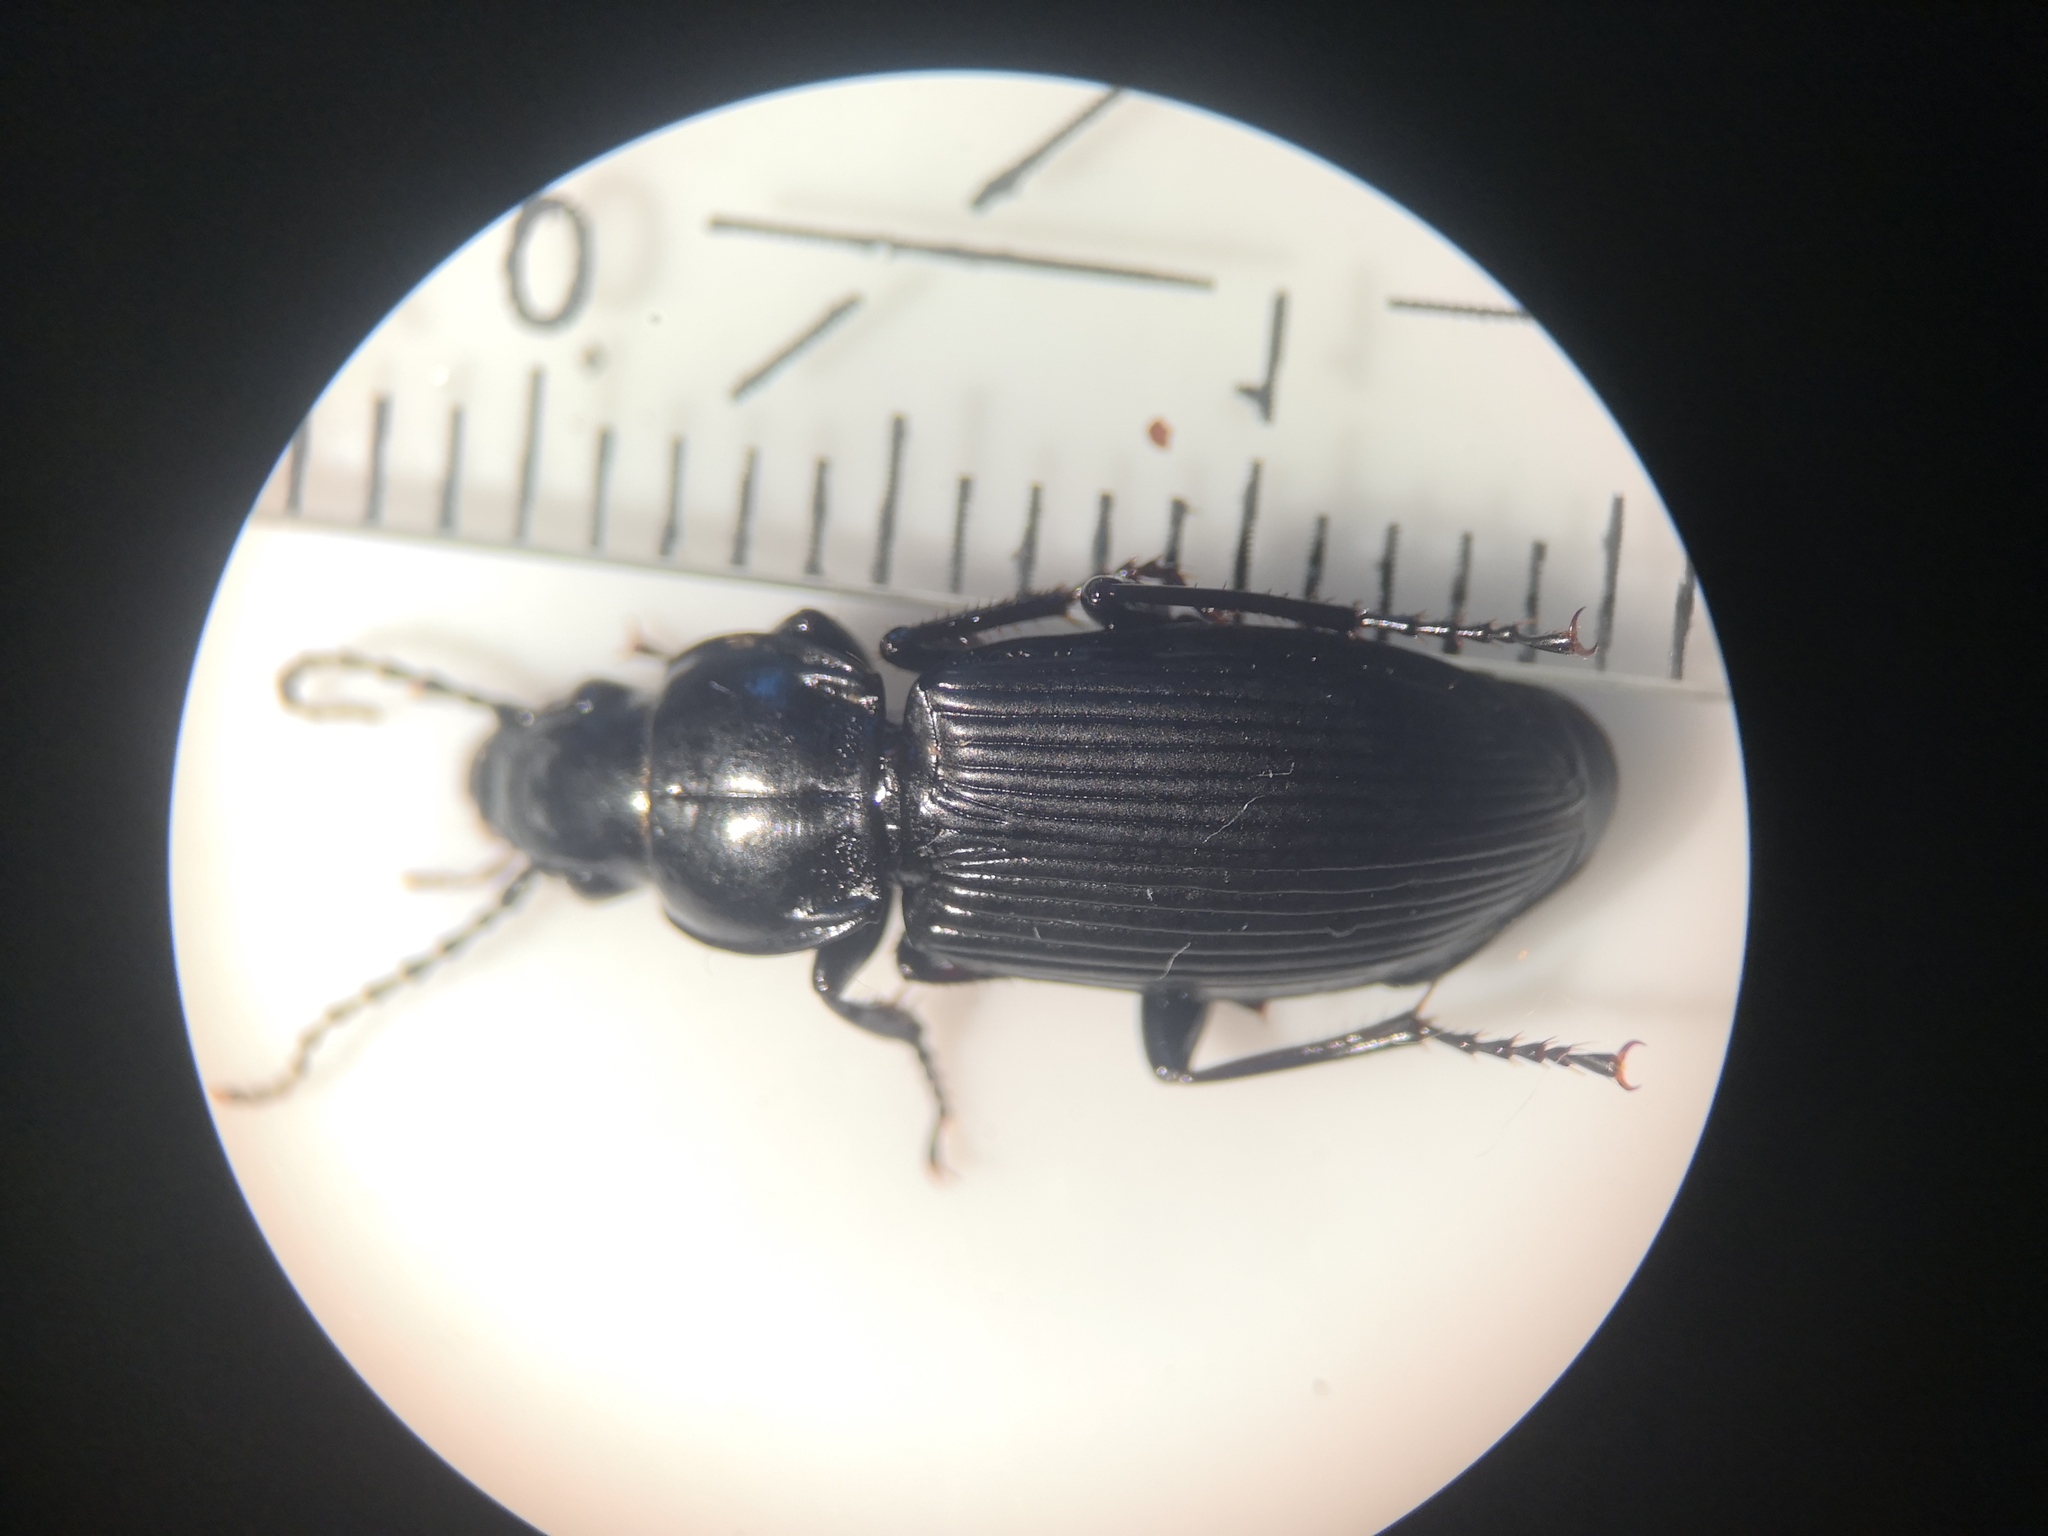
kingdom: Animalia
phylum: Arthropoda
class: Insecta
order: Coleoptera
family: Carabidae
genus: Pterostichus
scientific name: Pterostichus melanarius
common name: European dark harp ground beetle
